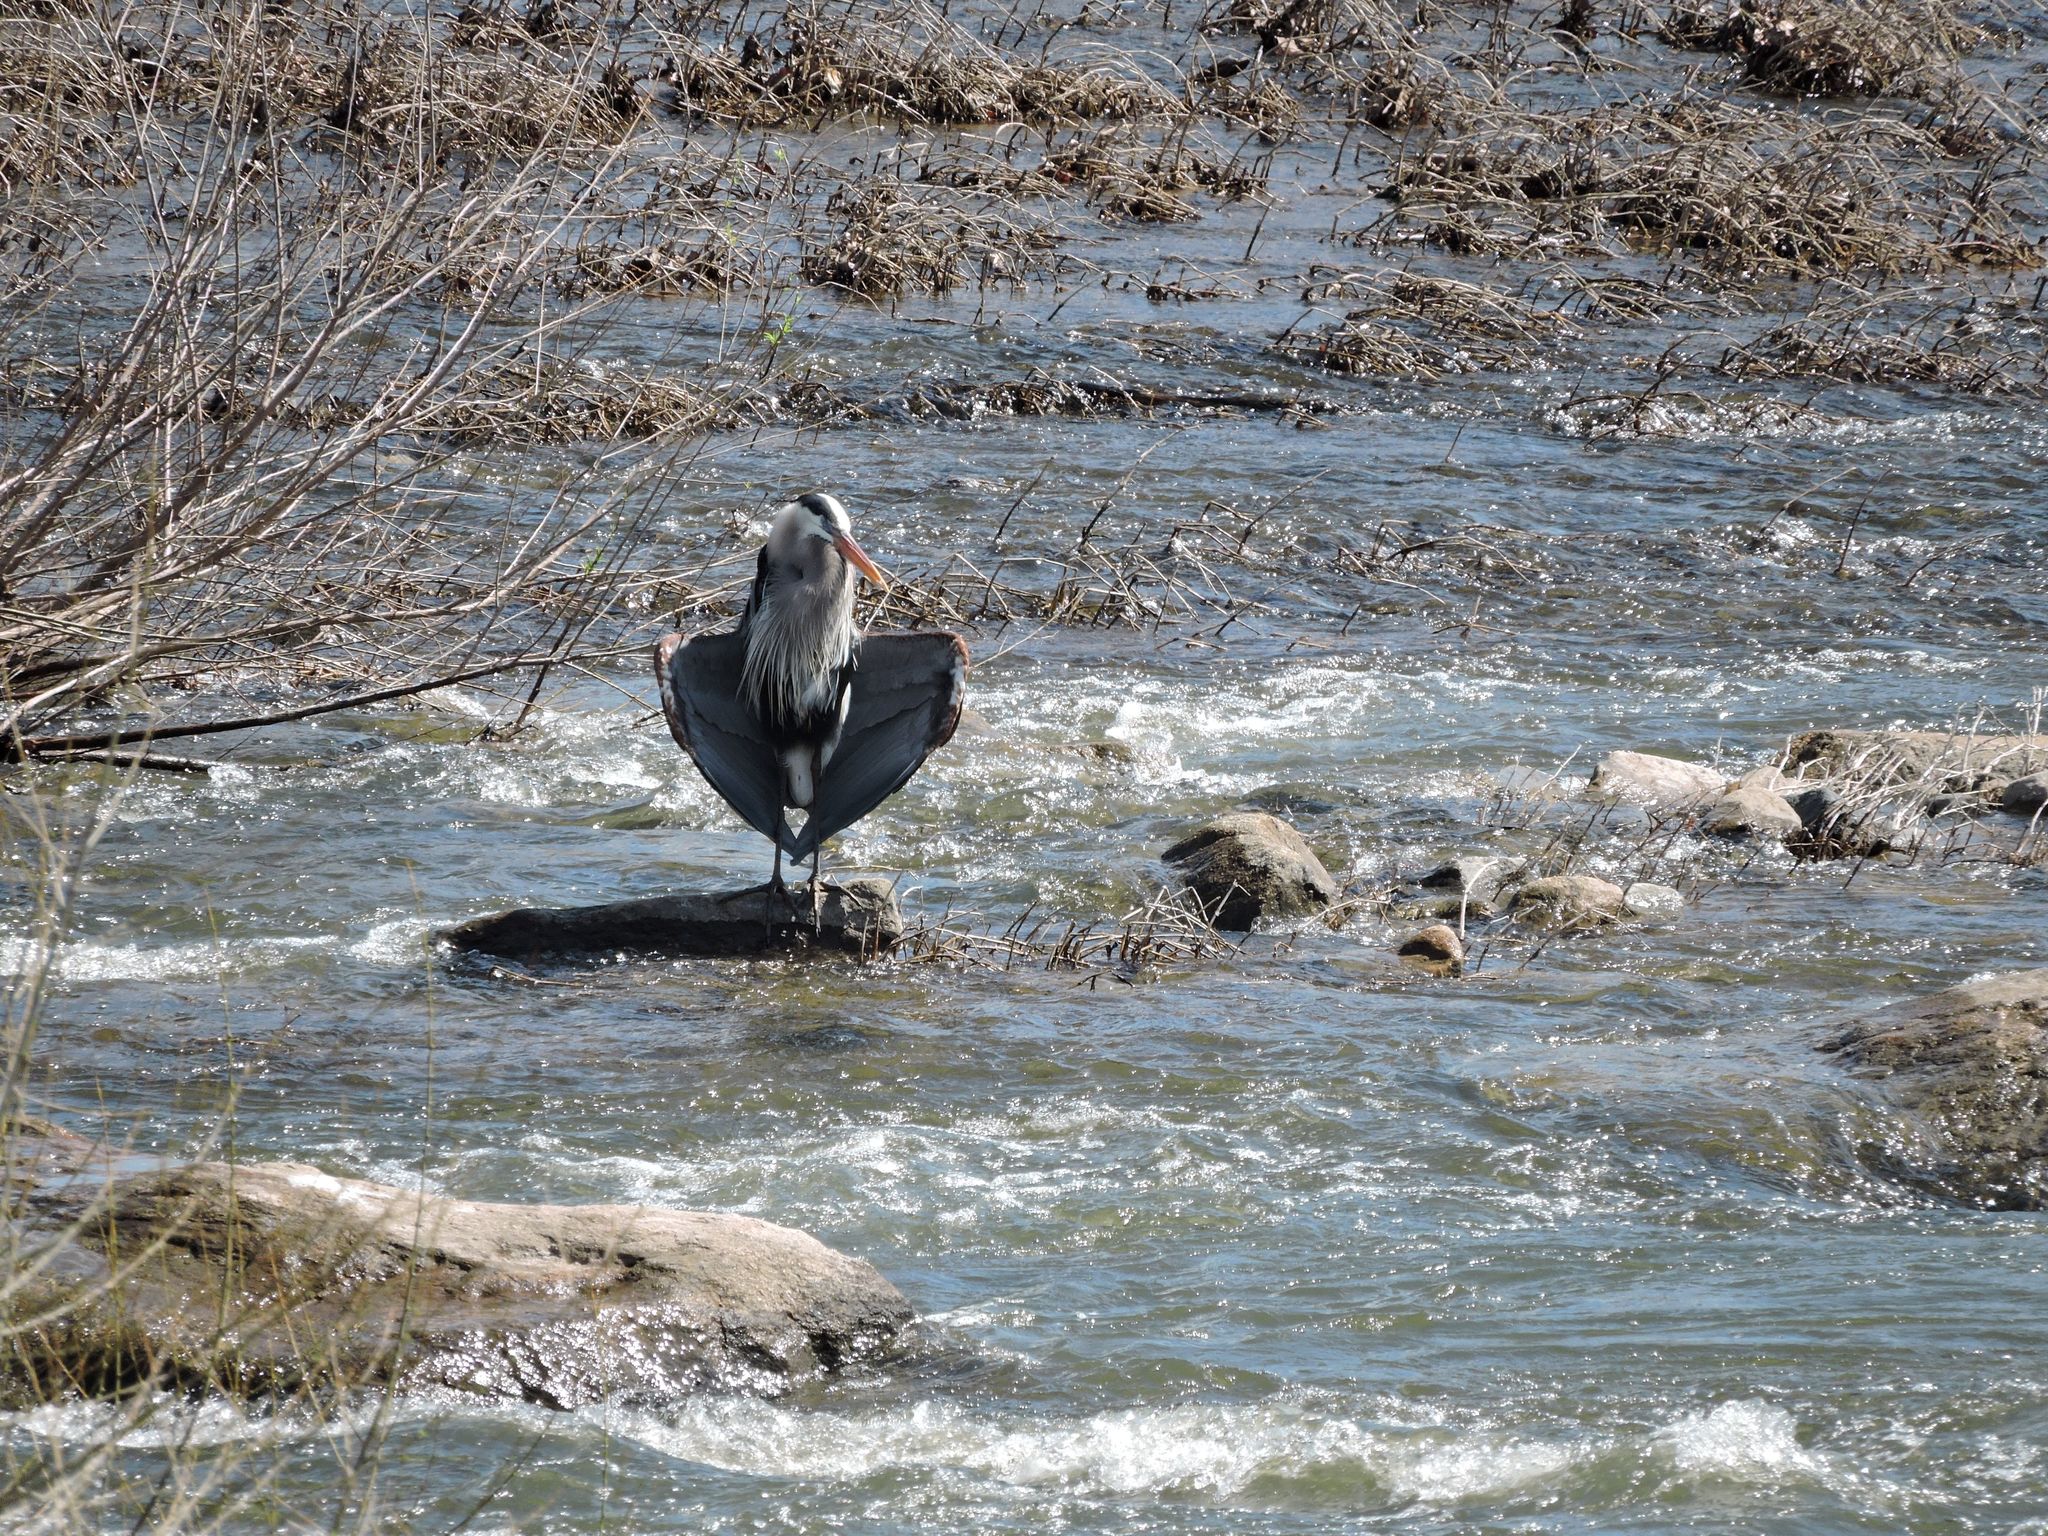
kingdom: Animalia
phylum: Chordata
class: Aves
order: Pelecaniformes
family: Ardeidae
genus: Ardea
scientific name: Ardea herodias
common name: Great blue heron
